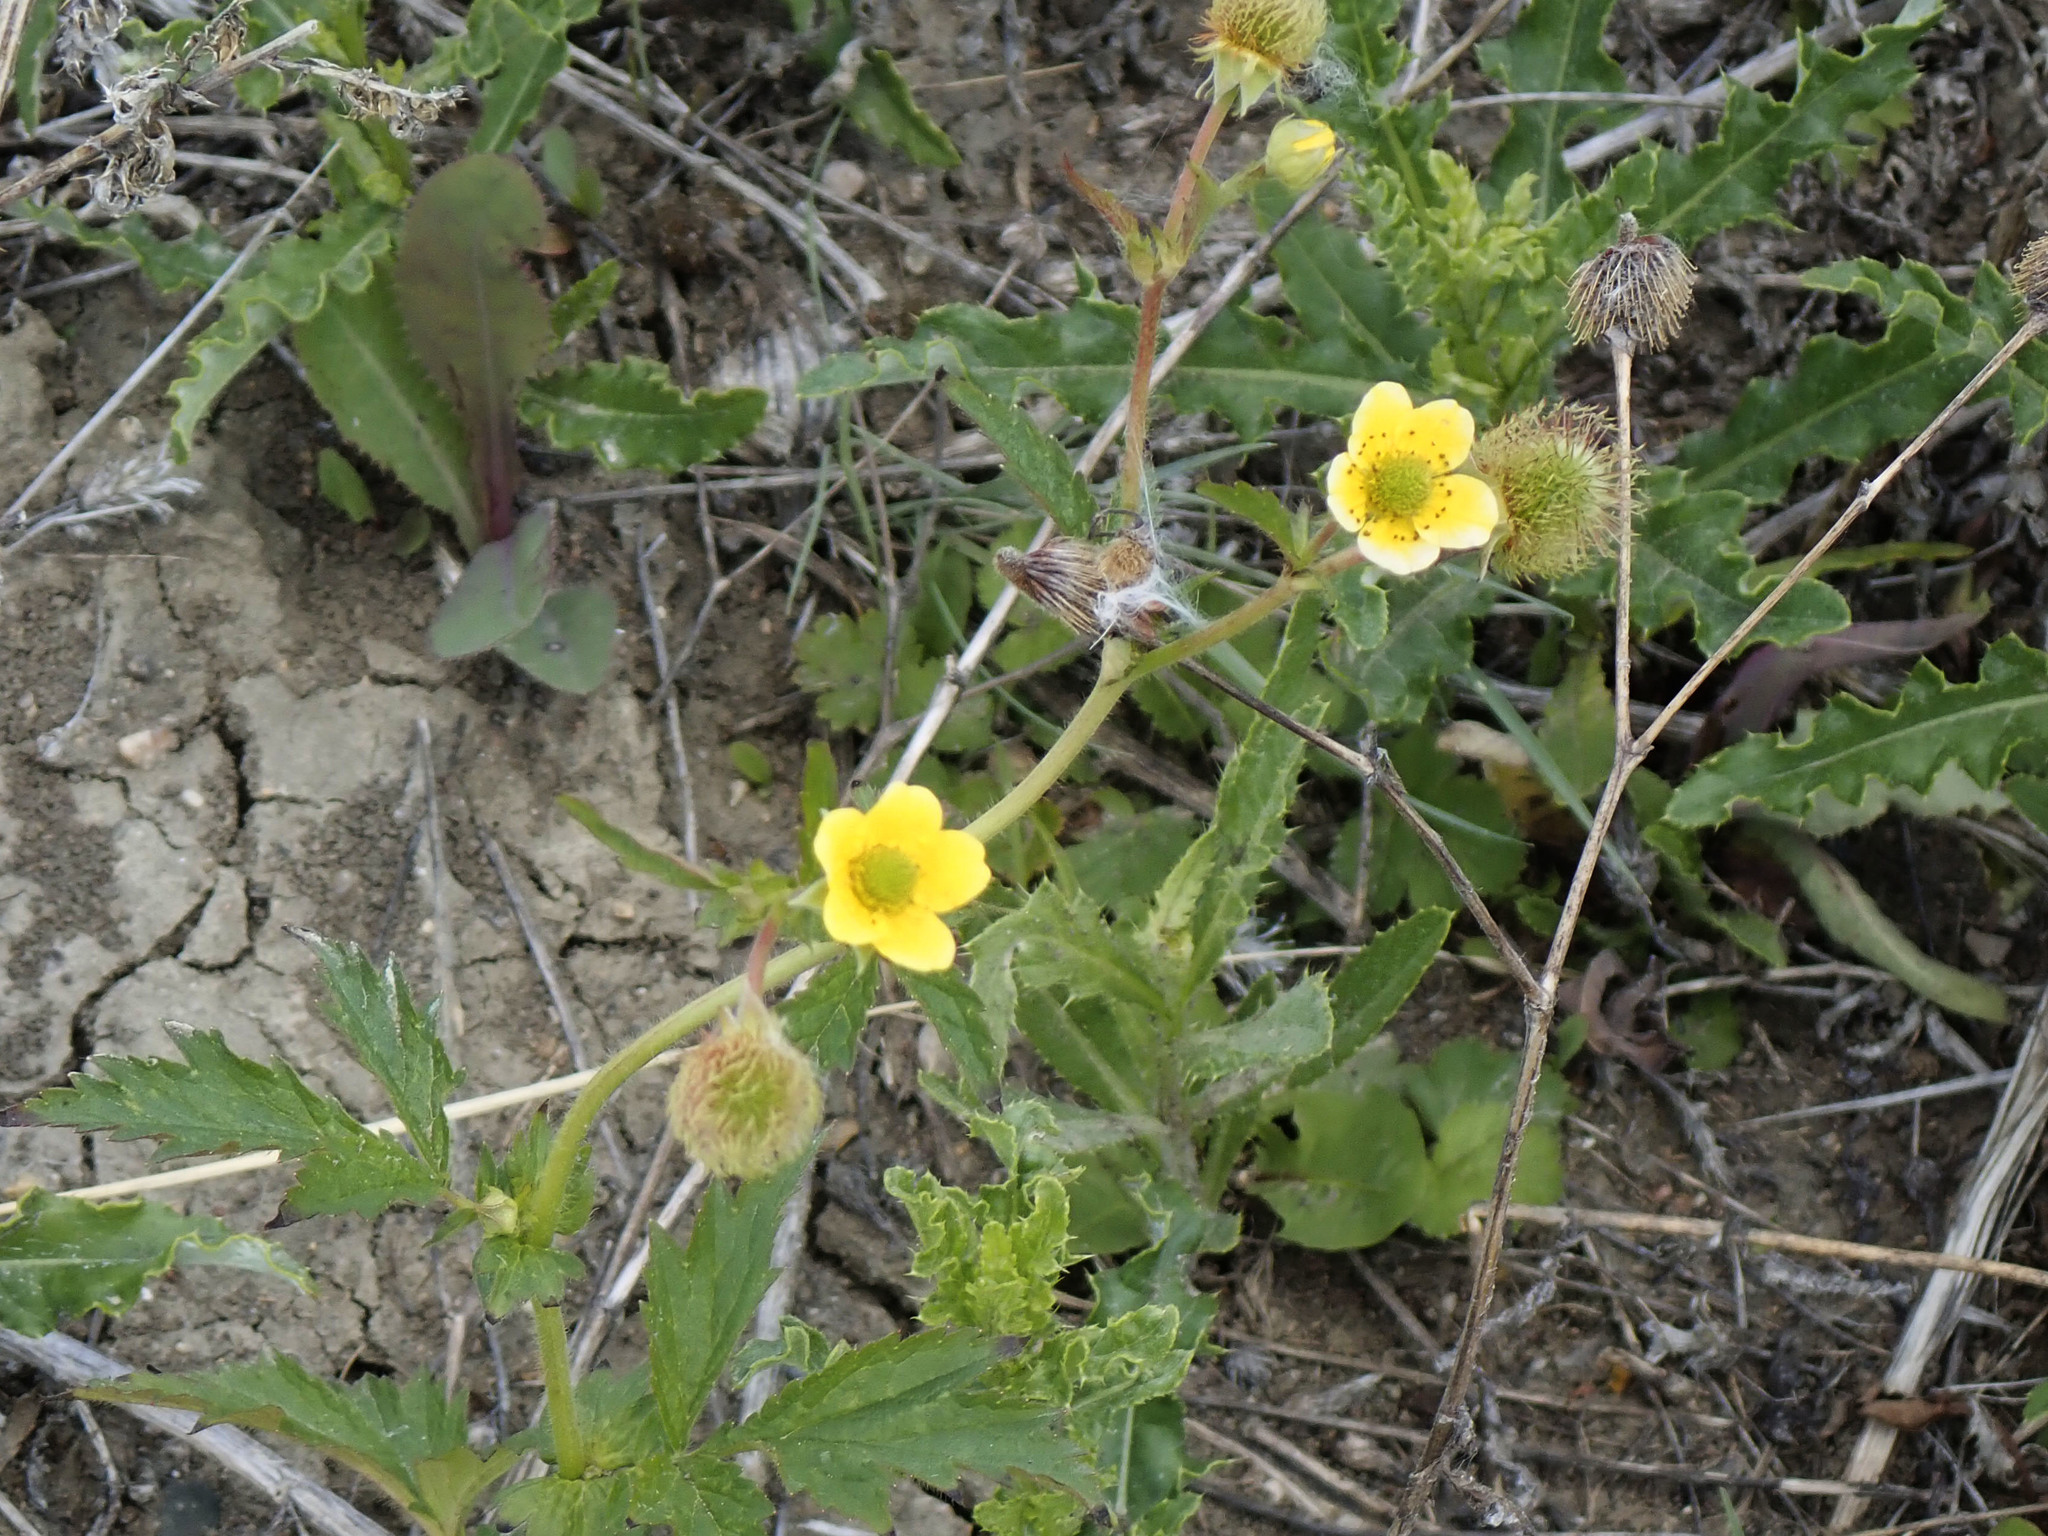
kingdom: Plantae
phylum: Tracheophyta
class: Magnoliopsida
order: Rosales
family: Rosaceae
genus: Geum
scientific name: Geum aleppicum
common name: Yellow avens
